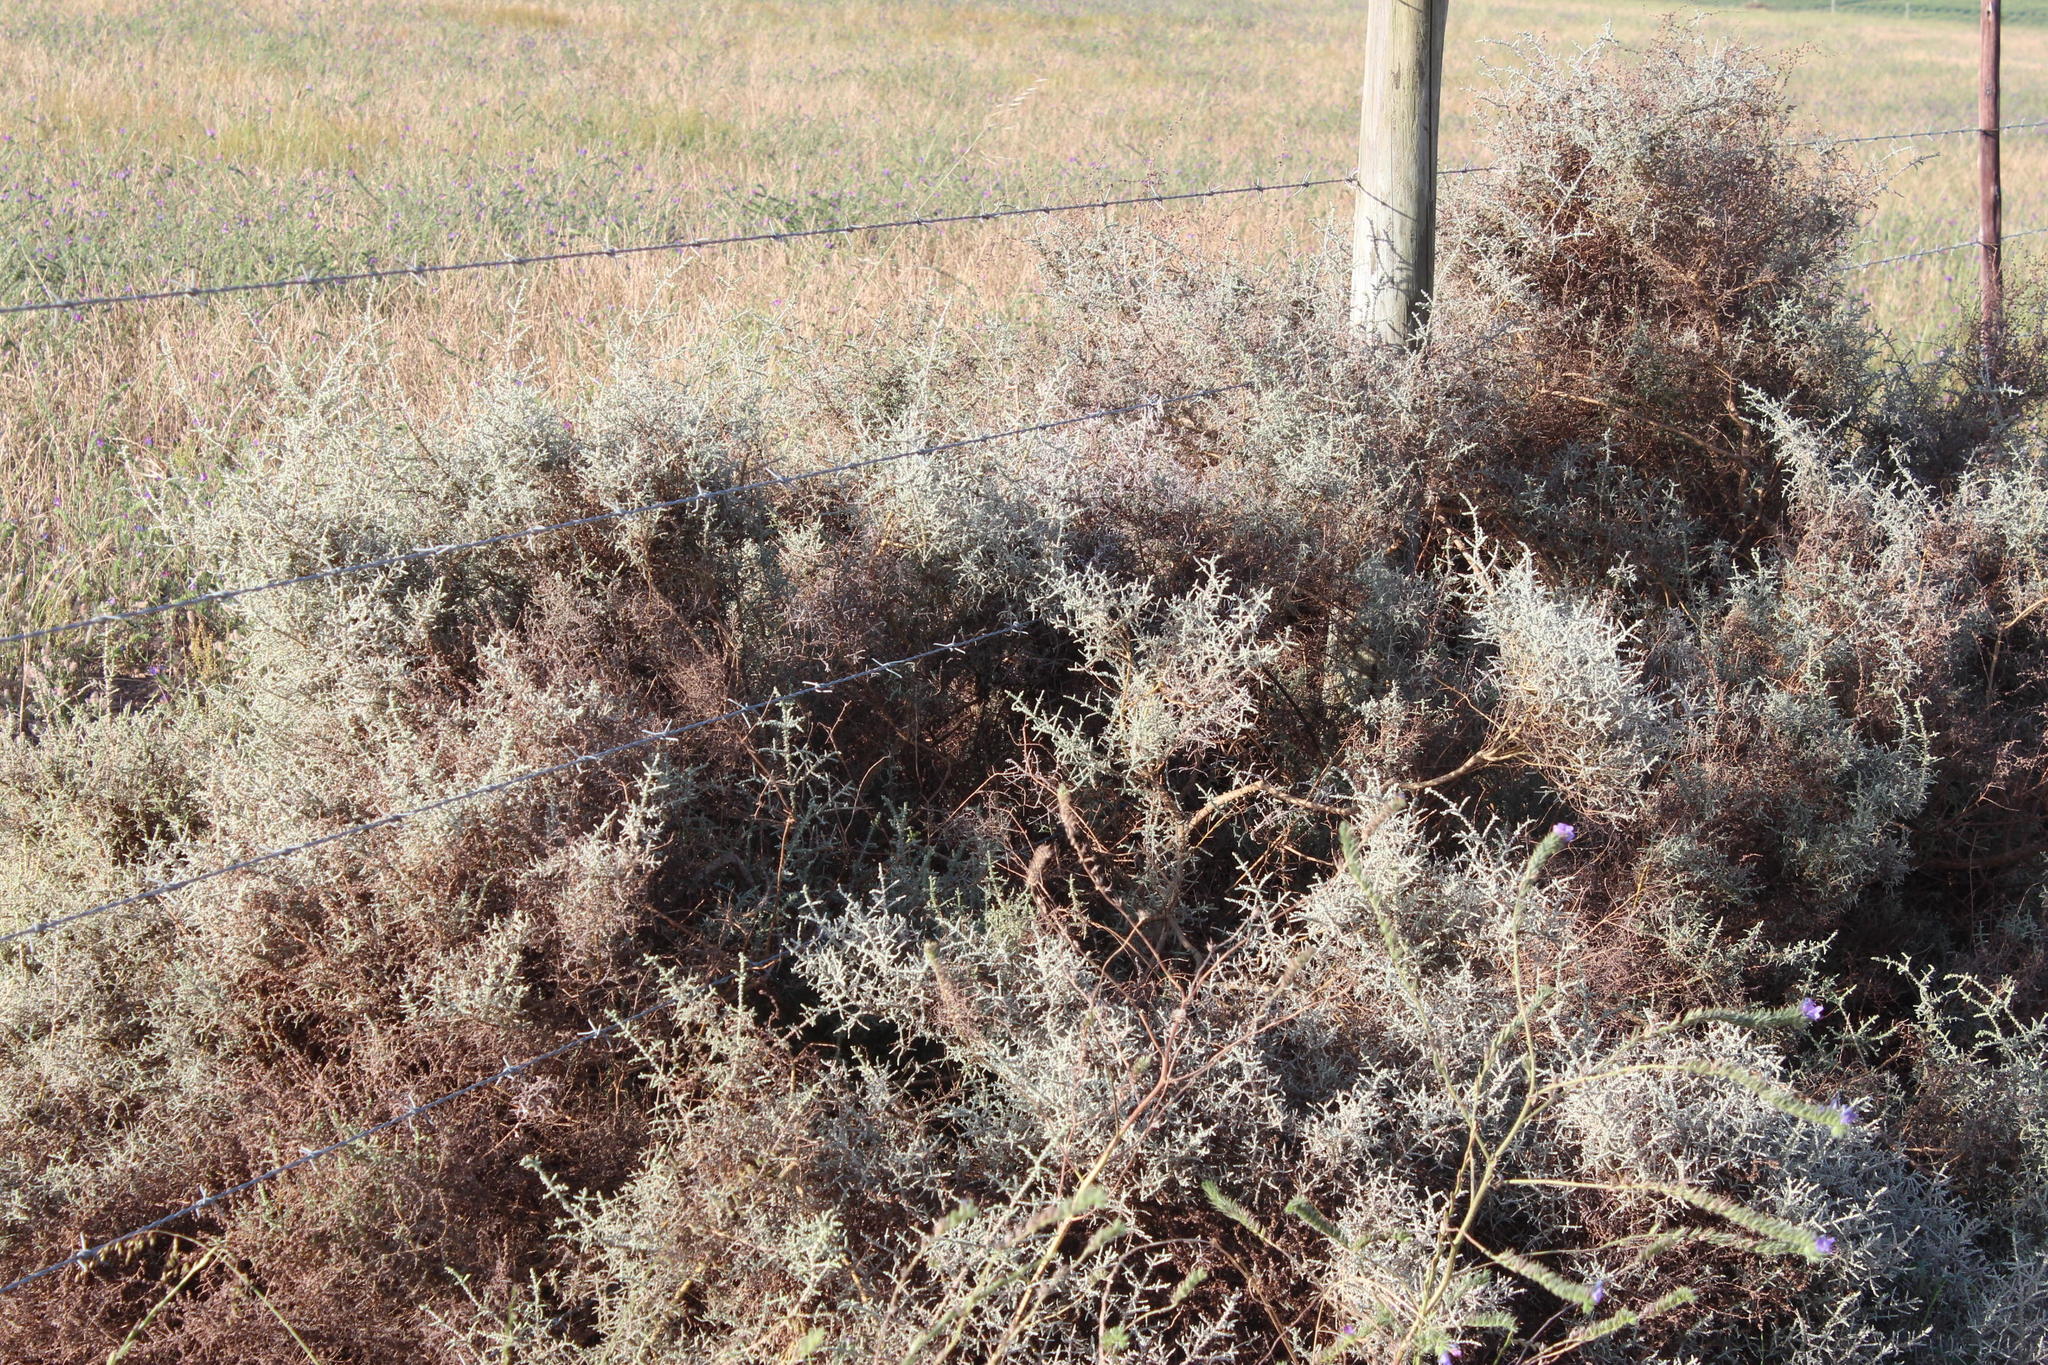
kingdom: Plantae
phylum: Tracheophyta
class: Magnoliopsida
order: Asterales
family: Asteraceae
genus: Seriphium
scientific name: Seriphium plumosum
